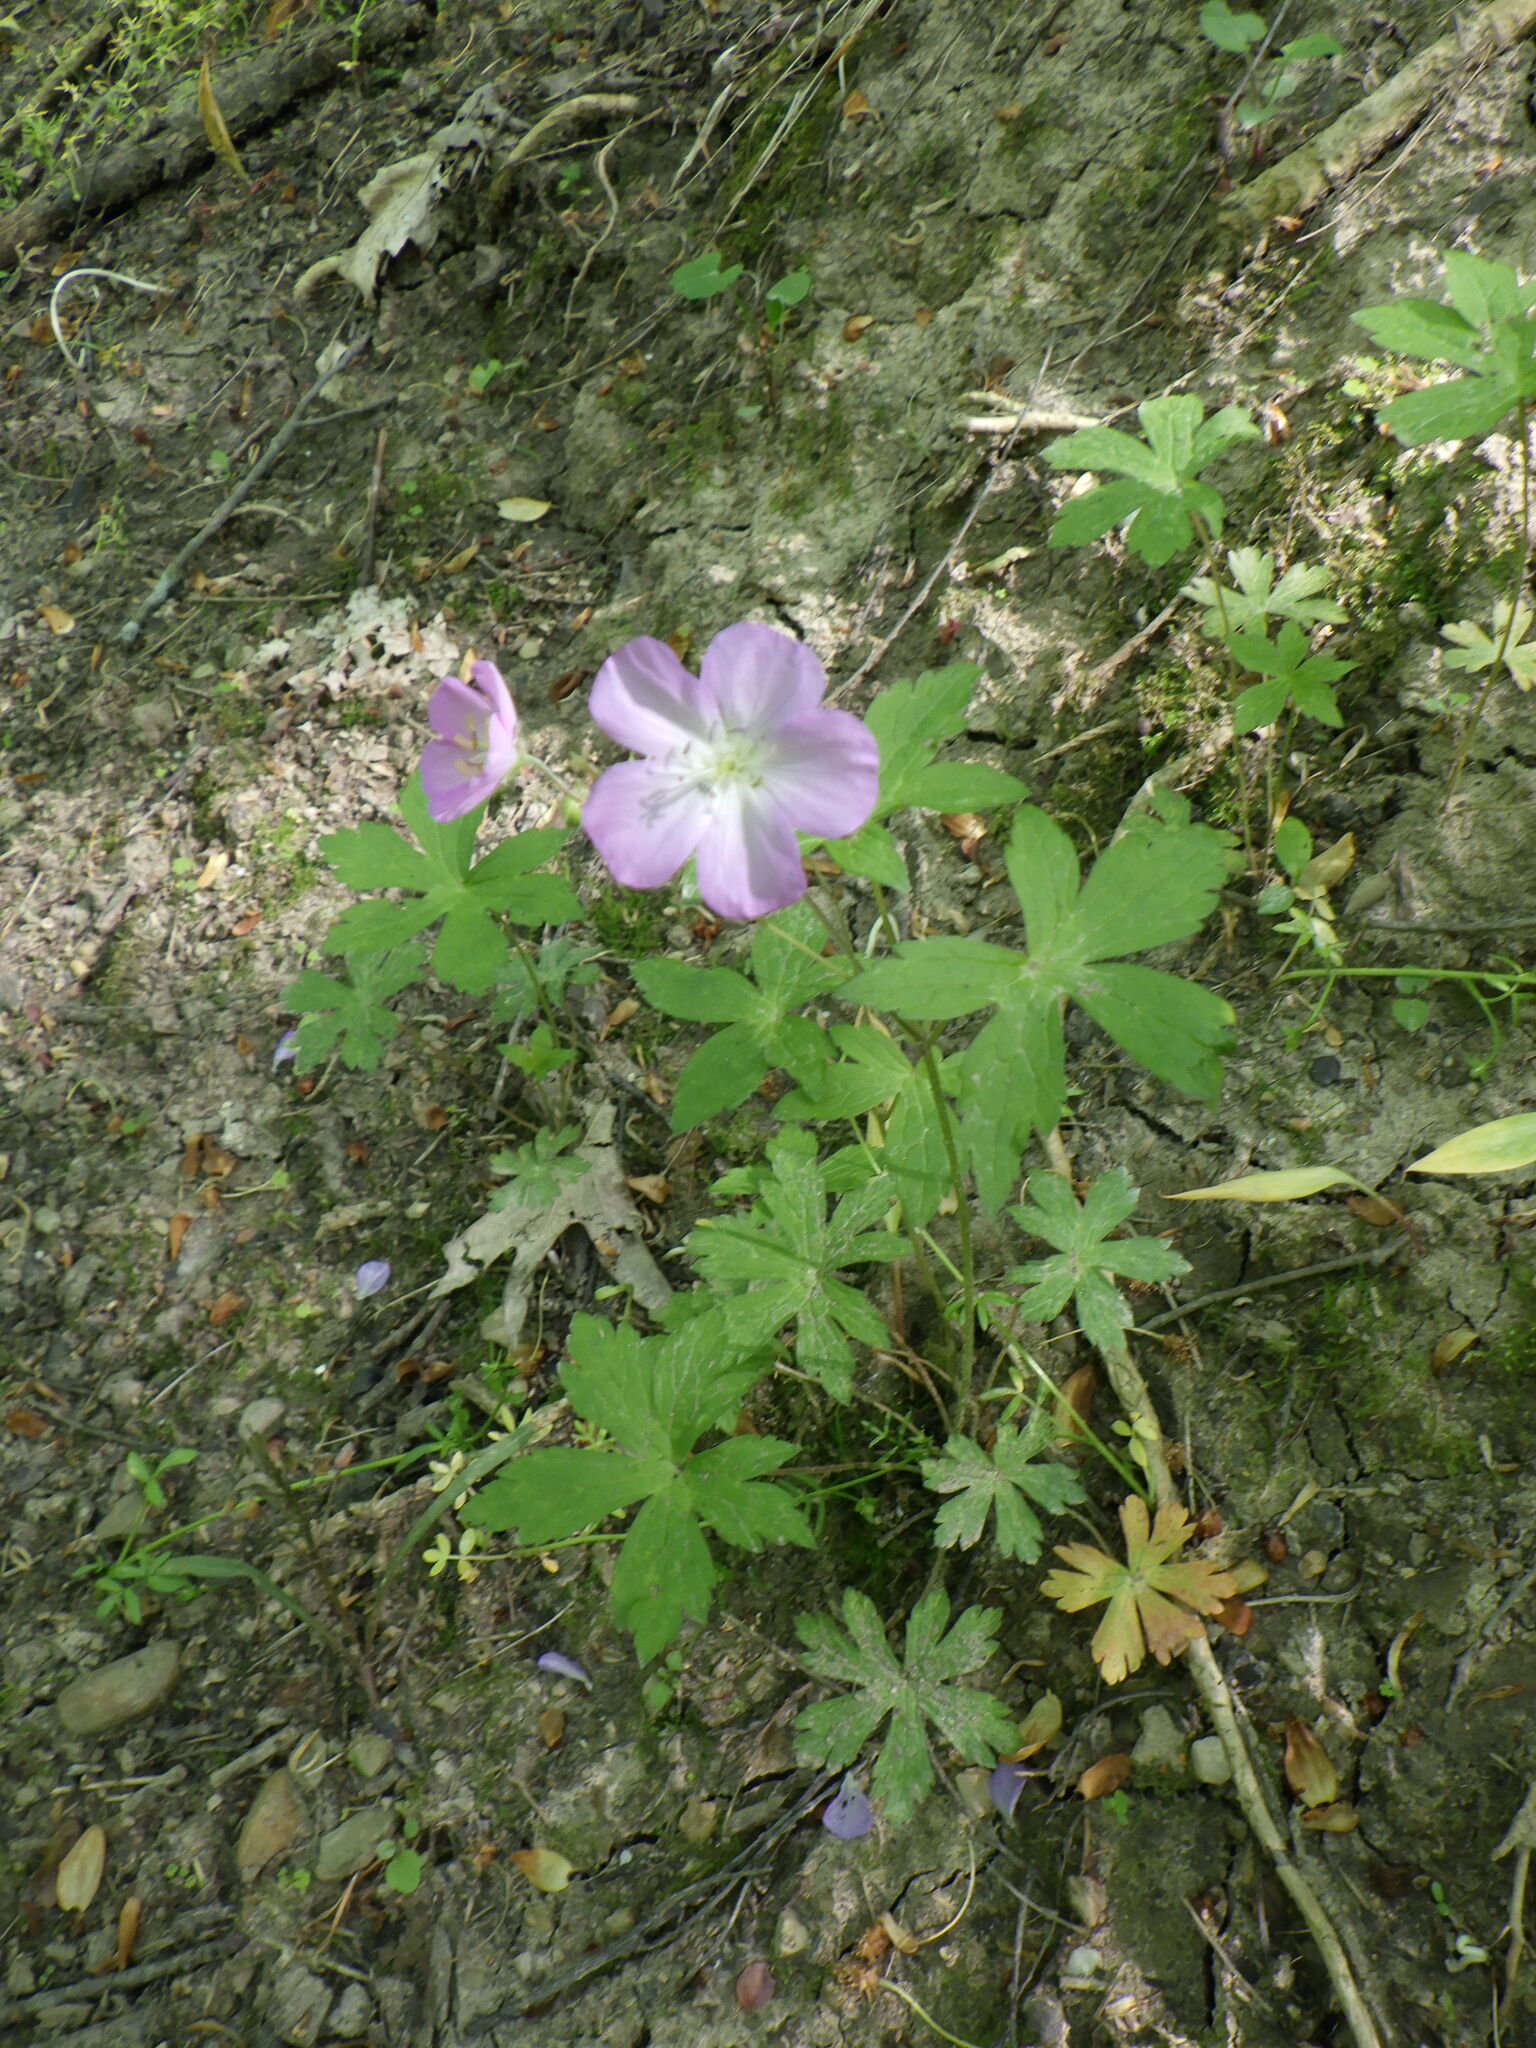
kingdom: Plantae
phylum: Tracheophyta
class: Magnoliopsida
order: Geraniales
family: Geraniaceae
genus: Geranium
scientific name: Geranium maculatum
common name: Spotted geranium
